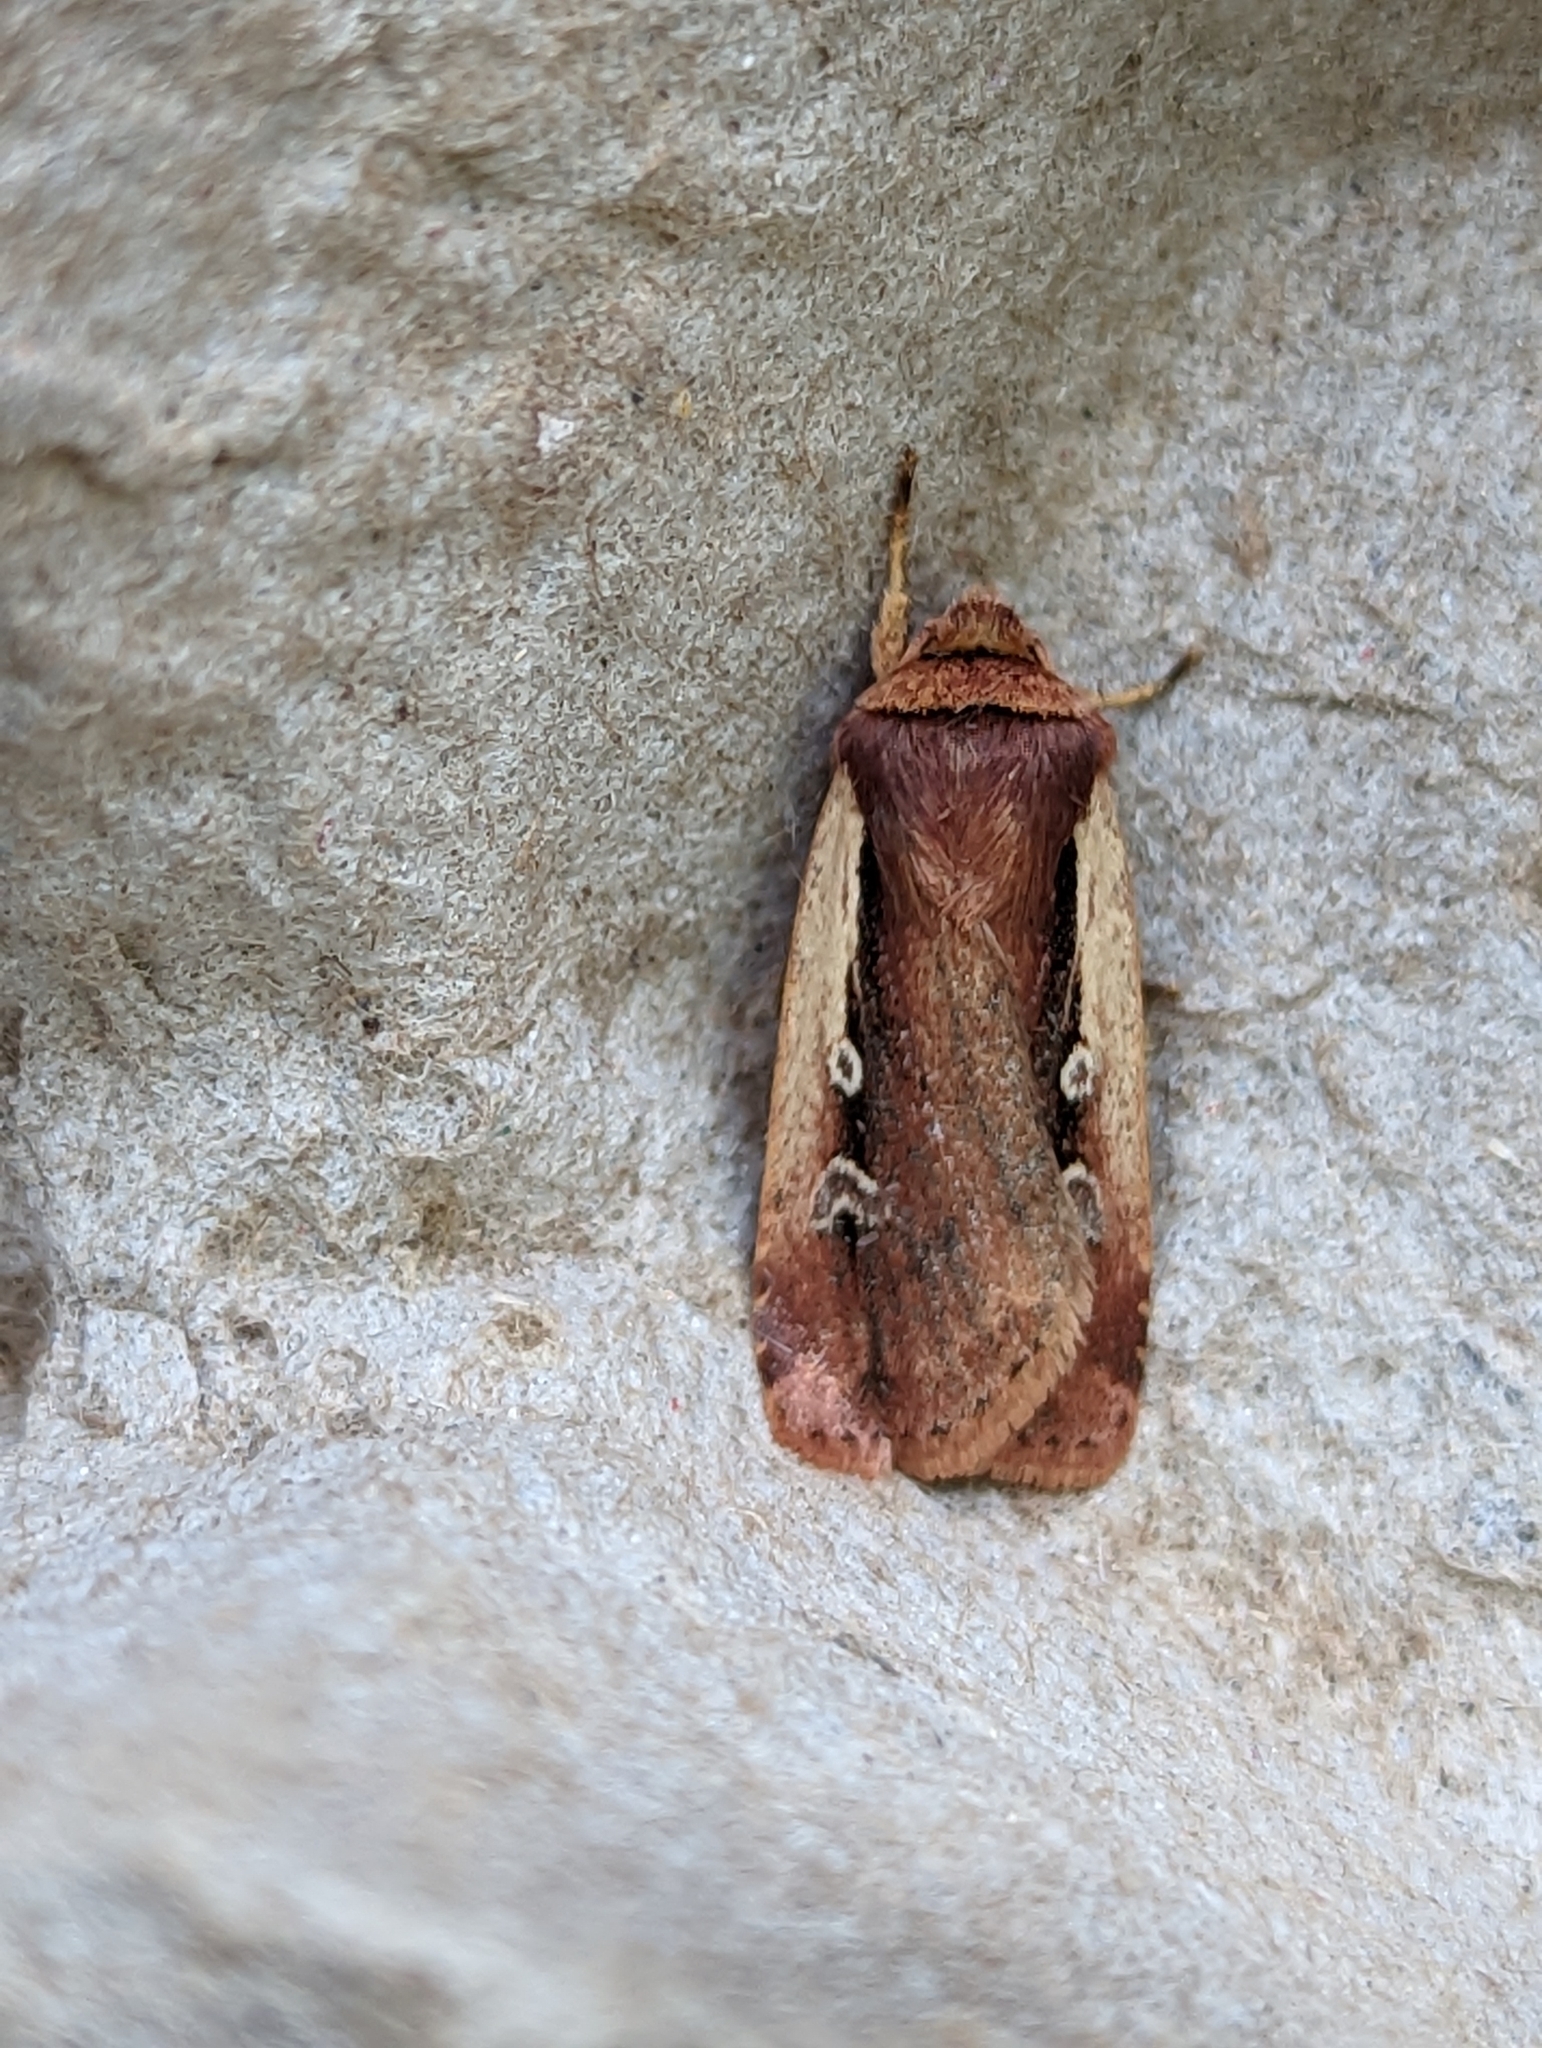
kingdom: Animalia
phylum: Arthropoda
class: Insecta
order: Lepidoptera
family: Noctuidae
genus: Ochropleura
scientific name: Ochropleura plecta
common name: Flame shoulder
